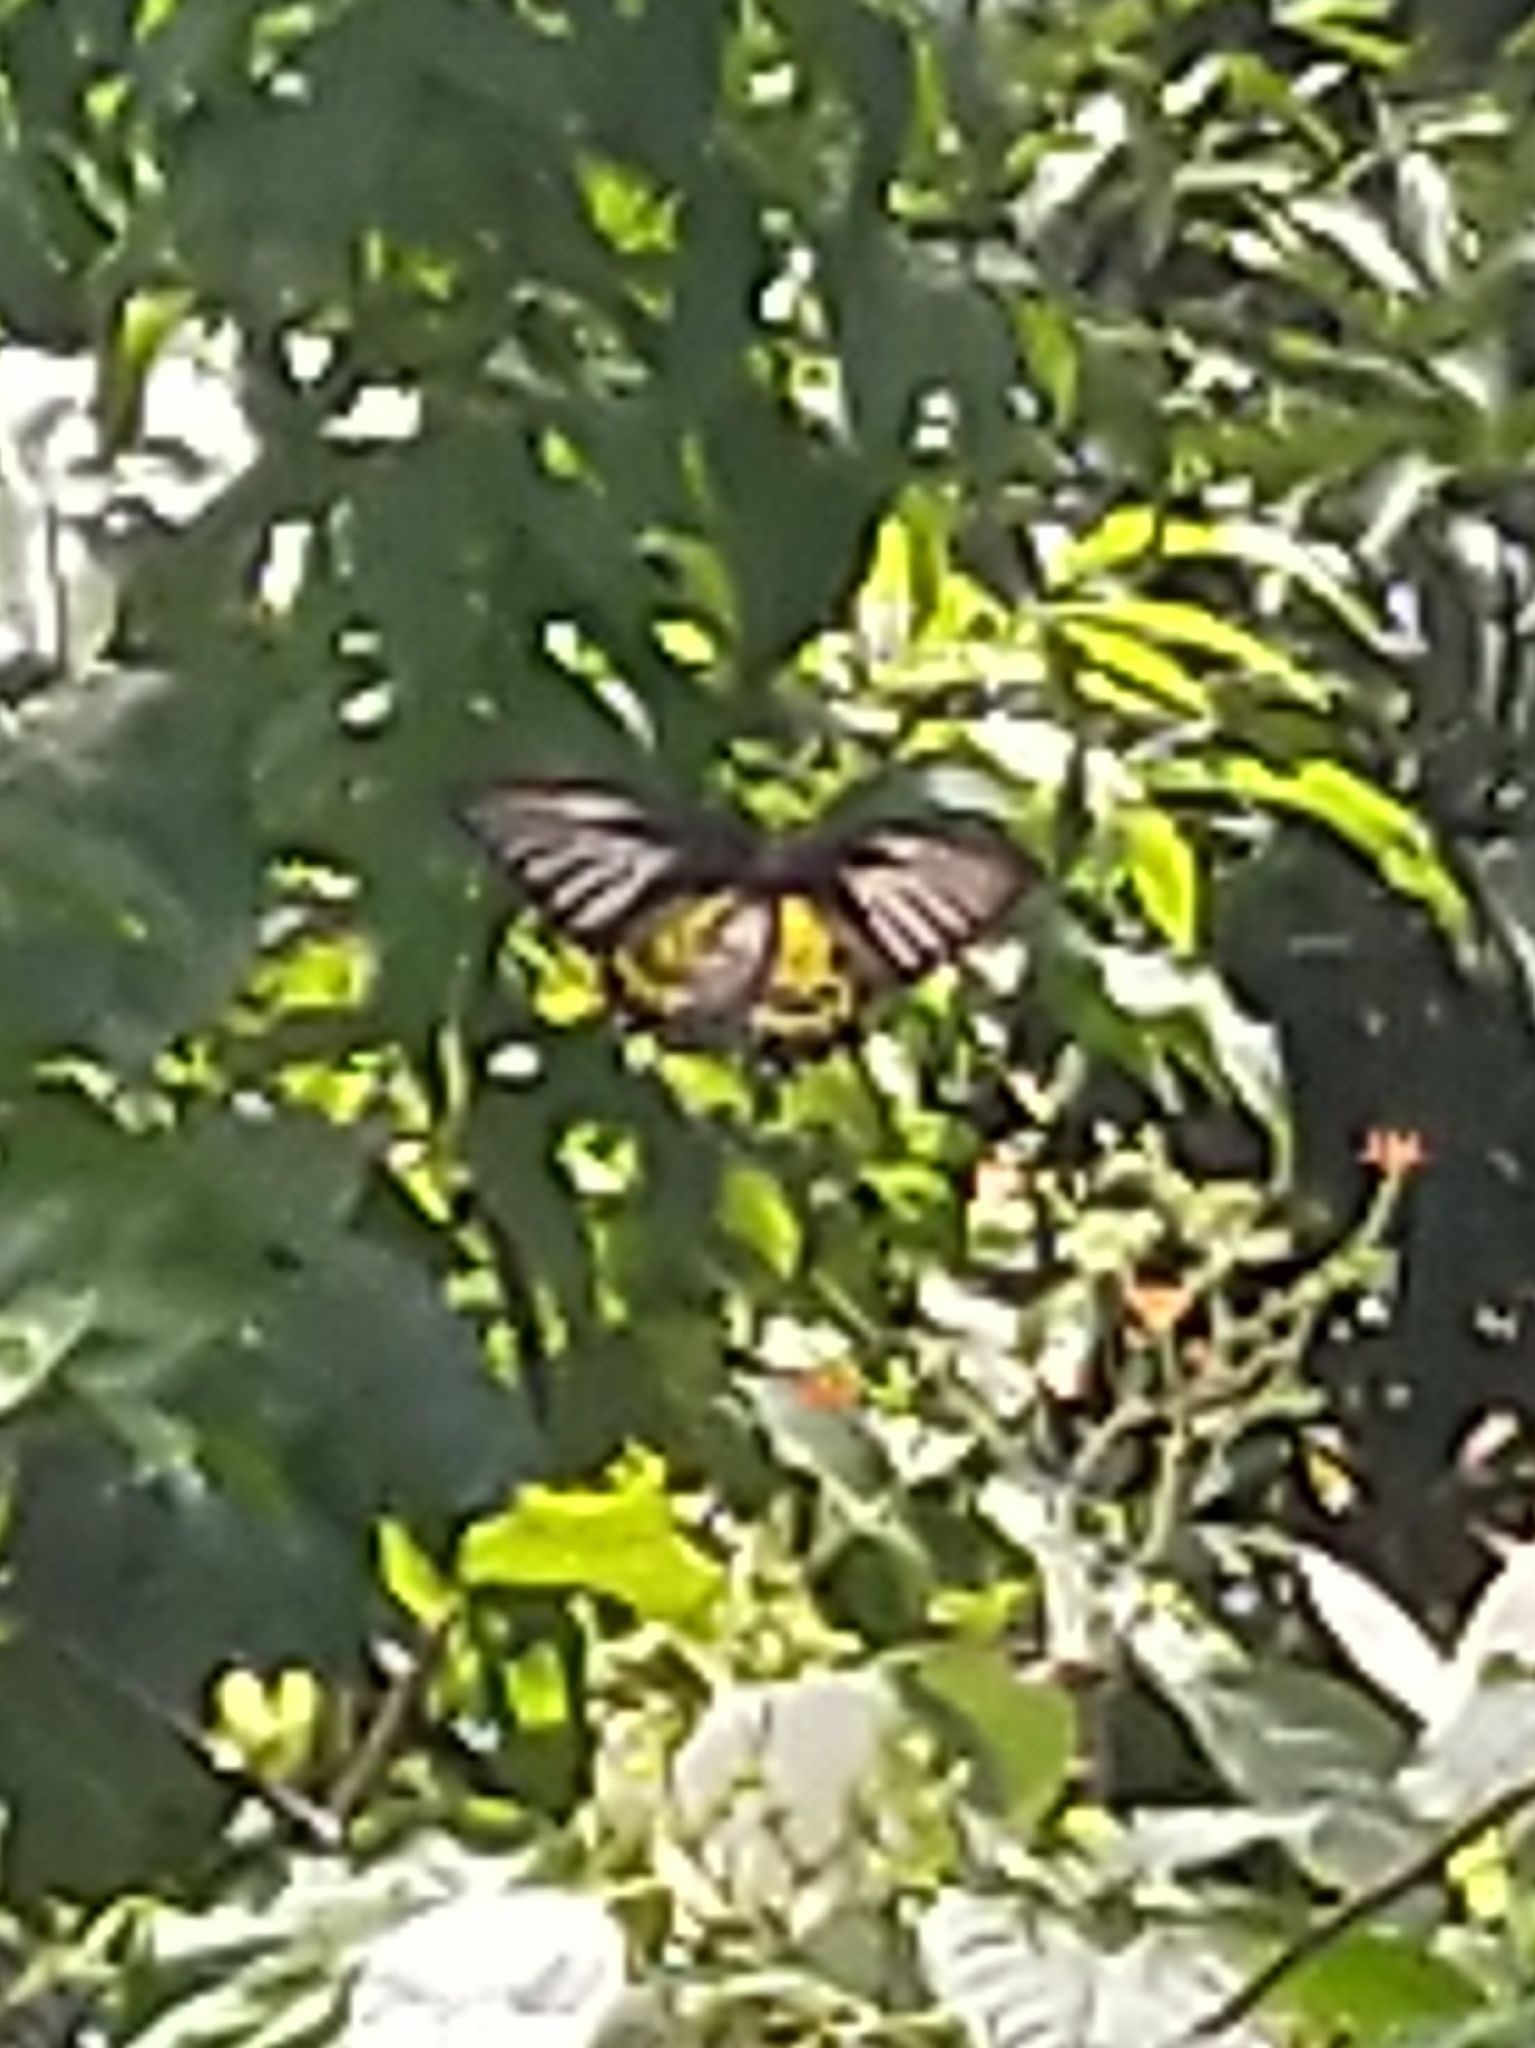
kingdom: Animalia
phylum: Arthropoda
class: Insecta
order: Lepidoptera
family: Papilionidae
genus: Troides
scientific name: Troides minos
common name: Malabar birdwing
